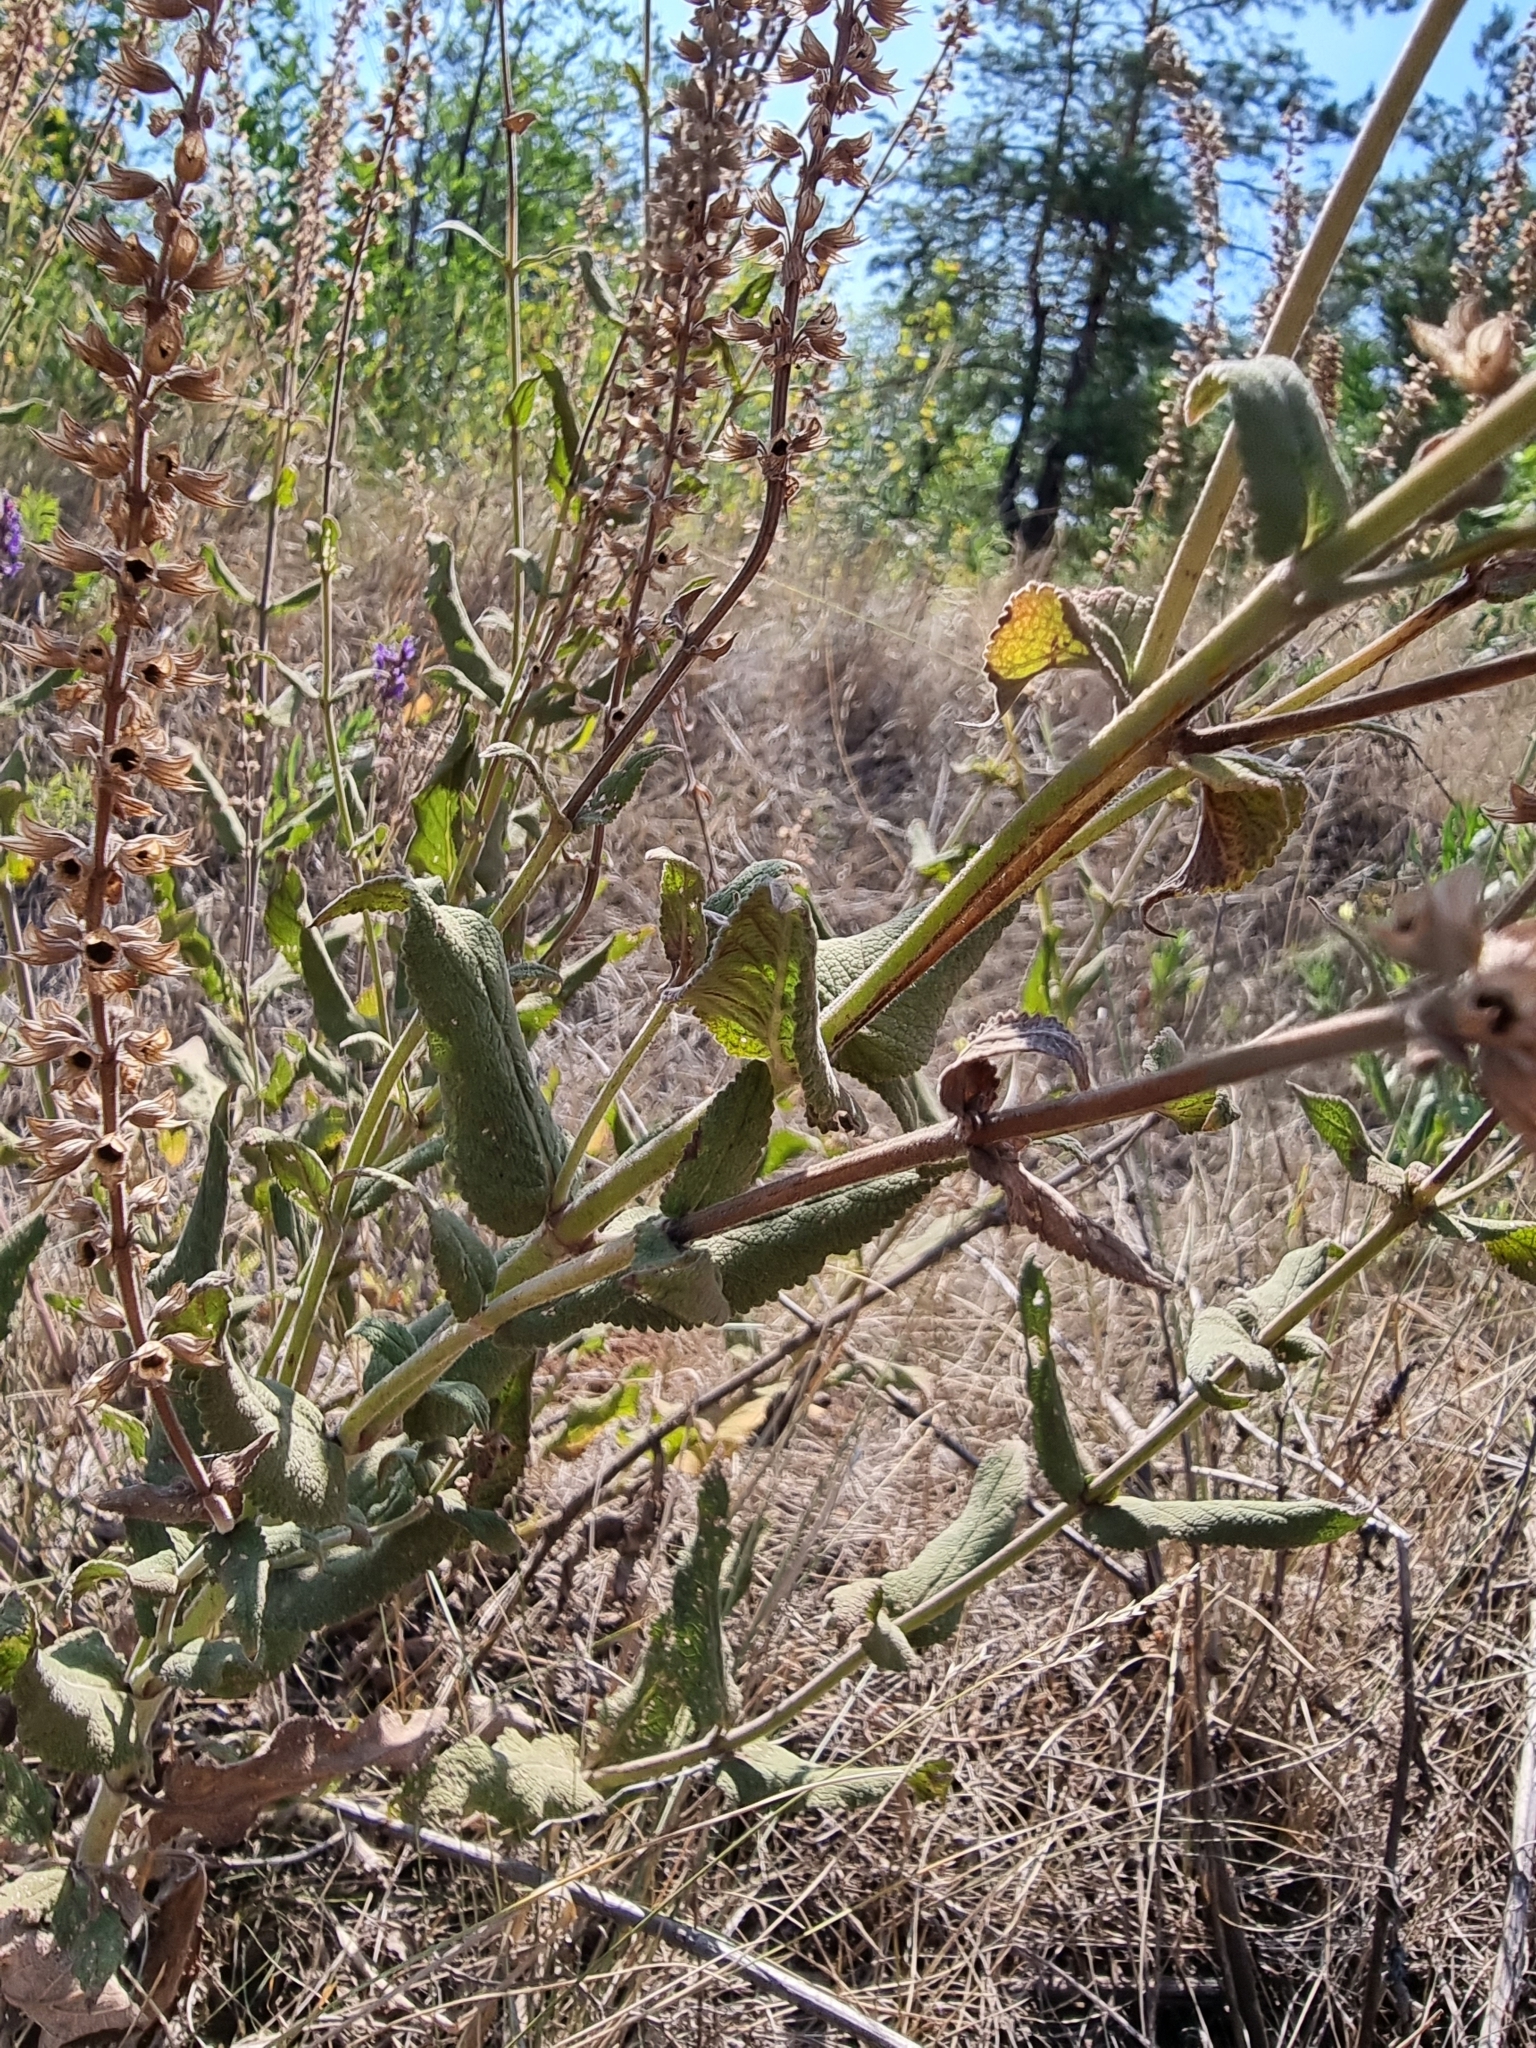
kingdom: Plantae
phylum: Tracheophyta
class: Magnoliopsida
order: Lamiales
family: Lamiaceae
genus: Salvia
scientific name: Salvia nemorosa
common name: Balkan clary
